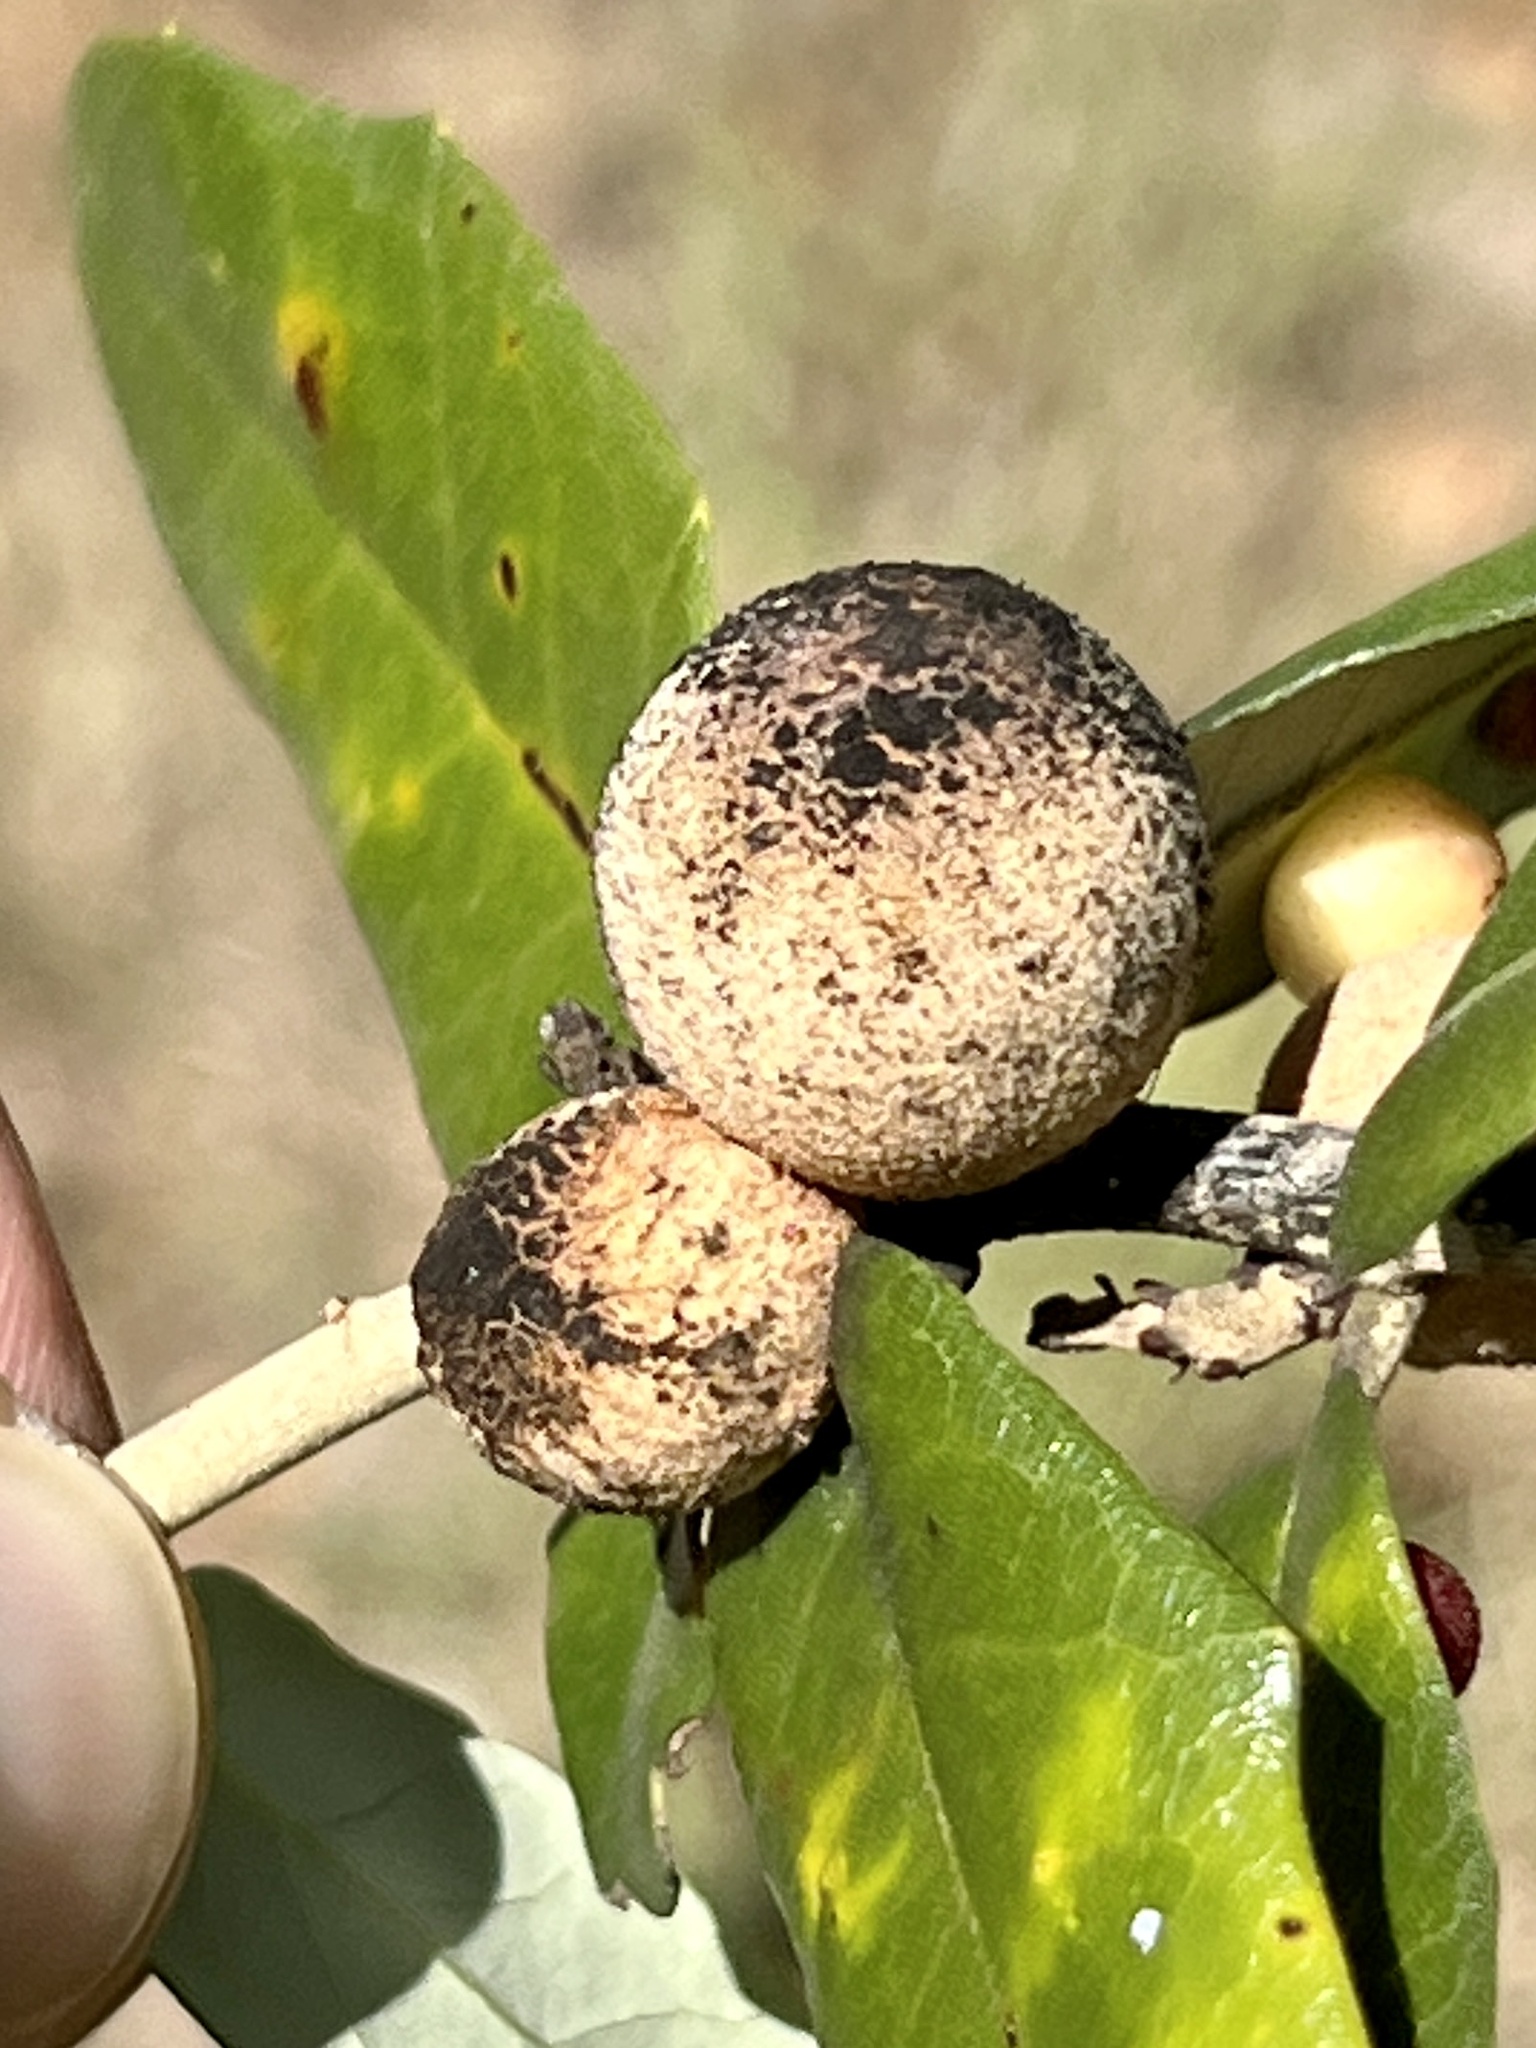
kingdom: Animalia
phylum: Arthropoda
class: Insecta
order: Hymenoptera
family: Cynipidae
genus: Disholcaspis
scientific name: Disholcaspis
